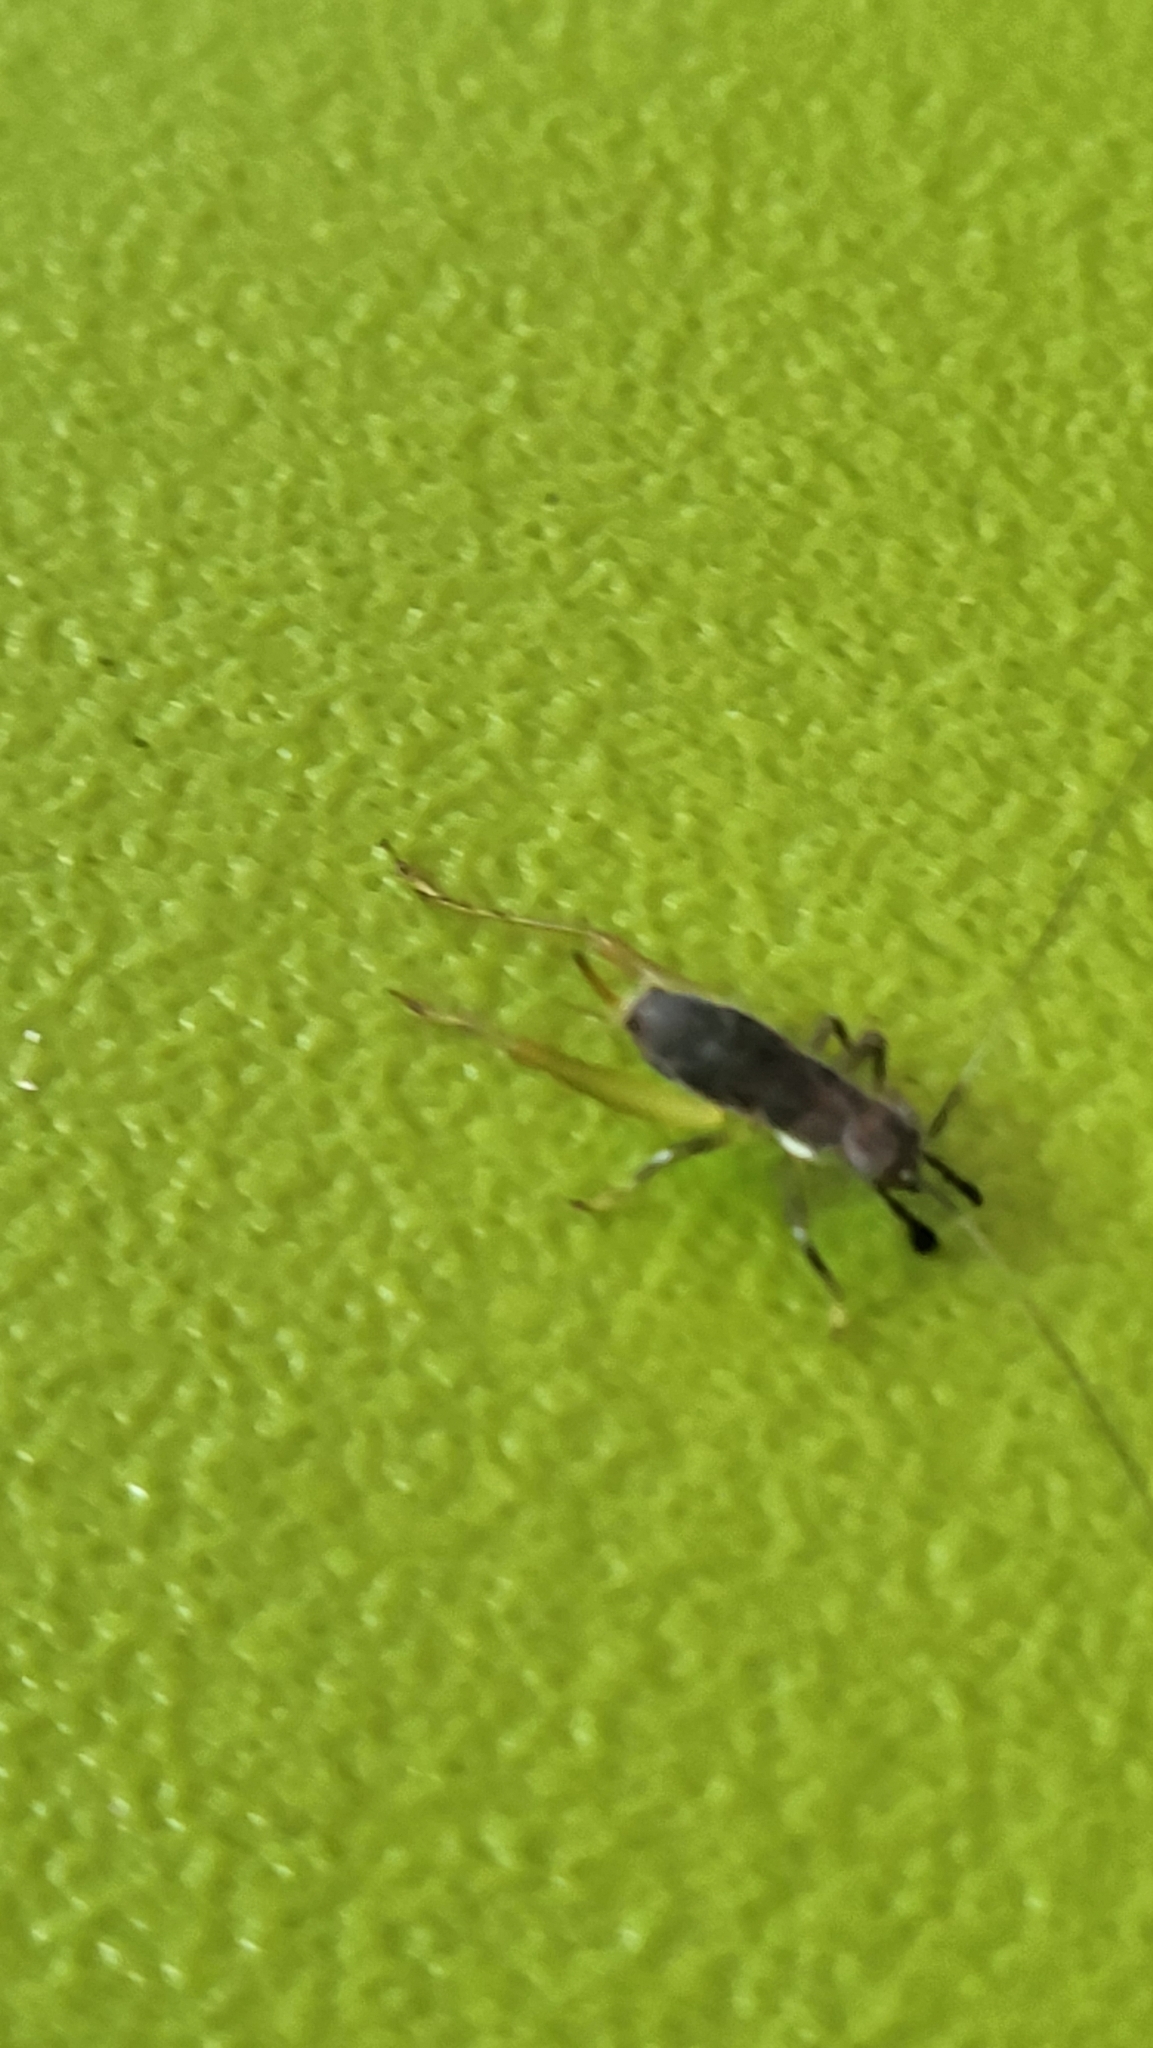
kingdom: Animalia
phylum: Arthropoda
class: Insecta
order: Orthoptera
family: Trigonidiidae
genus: Phyllopalpus
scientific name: Phyllopalpus pulchellus
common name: Handsome trig
